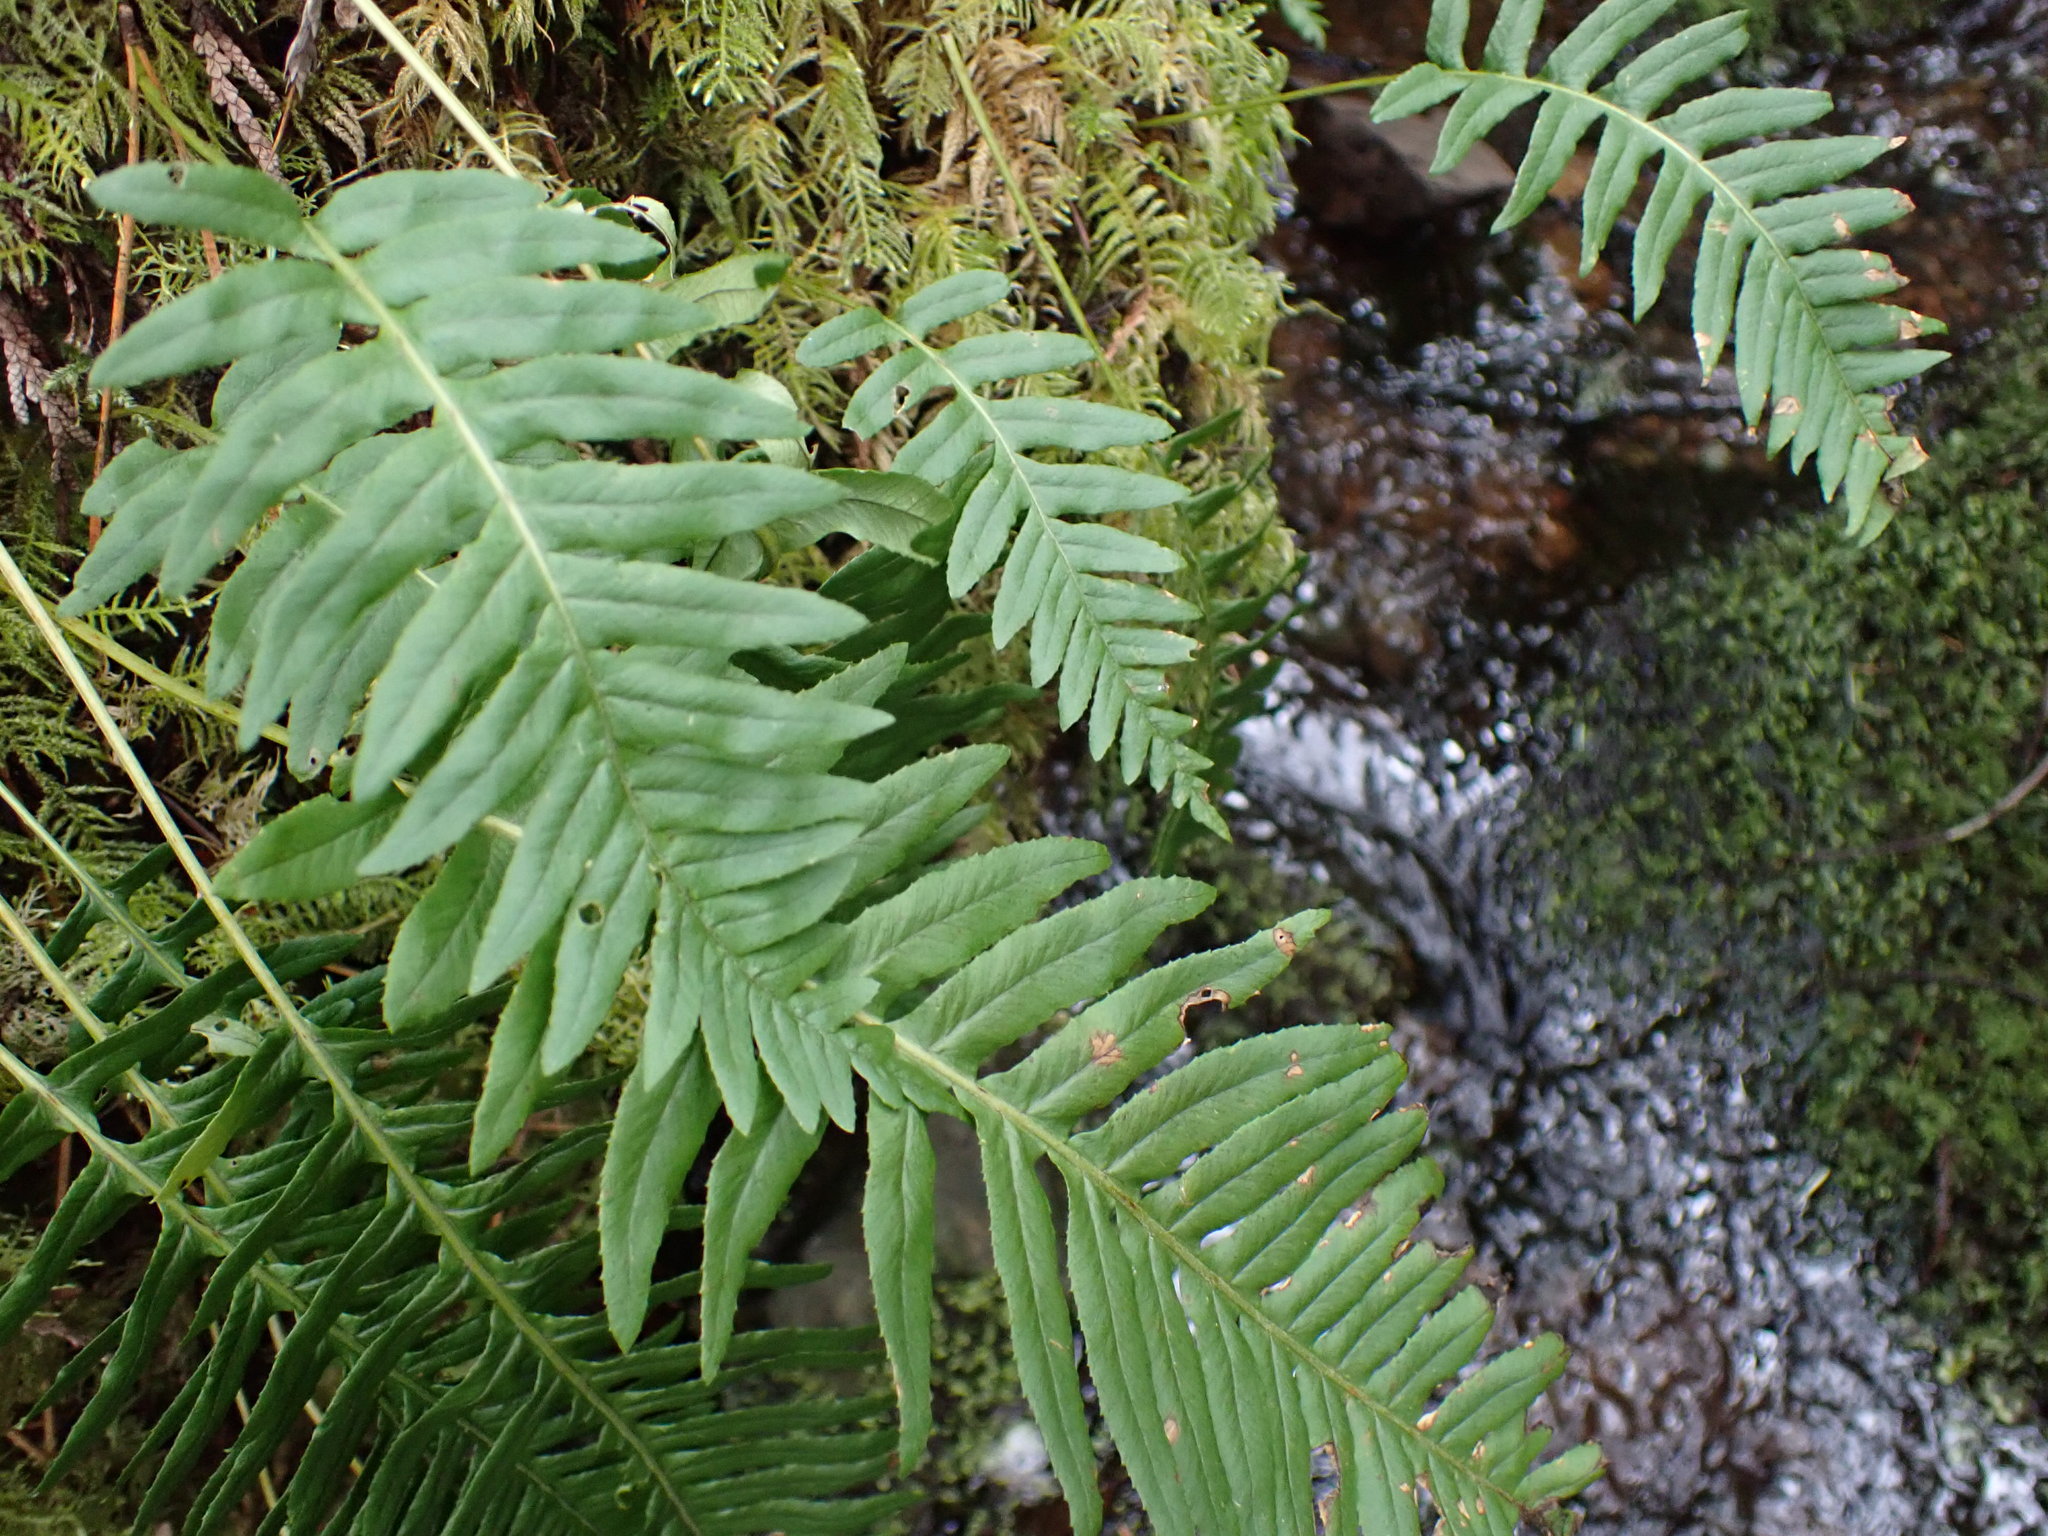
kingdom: Plantae
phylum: Tracheophyta
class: Polypodiopsida
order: Polypodiales
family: Polypodiaceae
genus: Polypodium
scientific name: Polypodium glycyrrhiza
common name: Licorice fern
